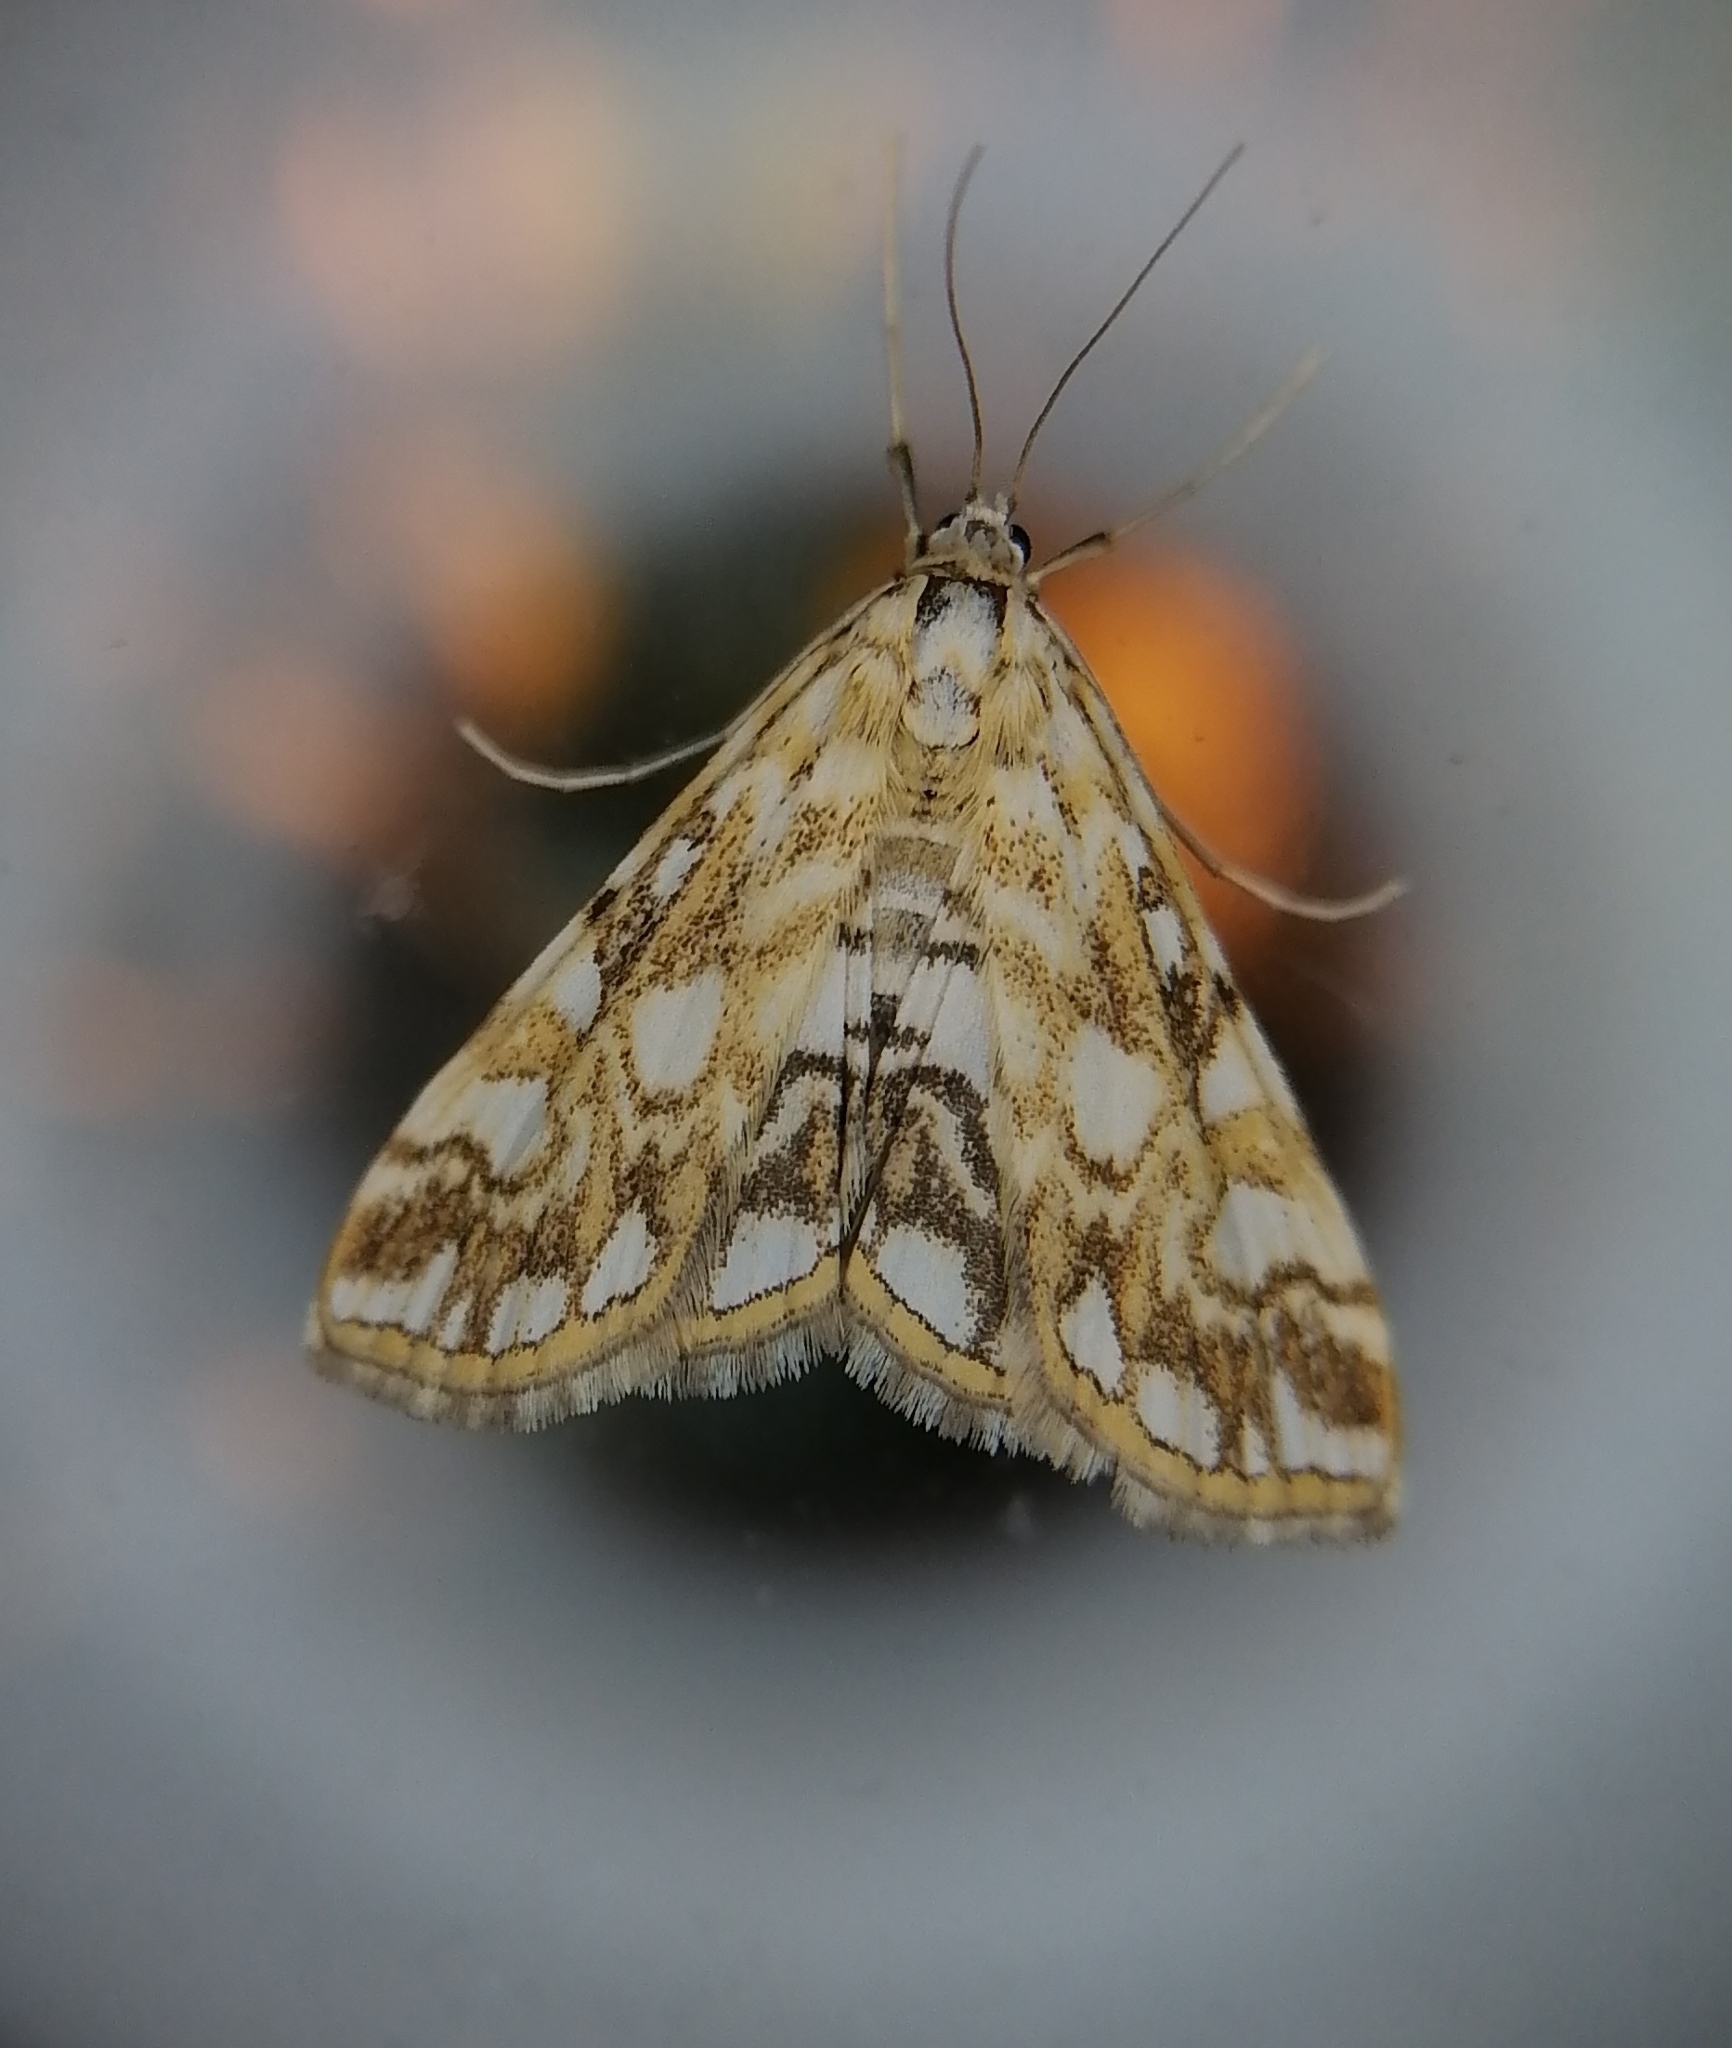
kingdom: Animalia
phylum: Arthropoda
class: Insecta
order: Lepidoptera
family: Crambidae
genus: Elophila
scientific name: Elophila nymphaeata
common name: Brown china-mark
